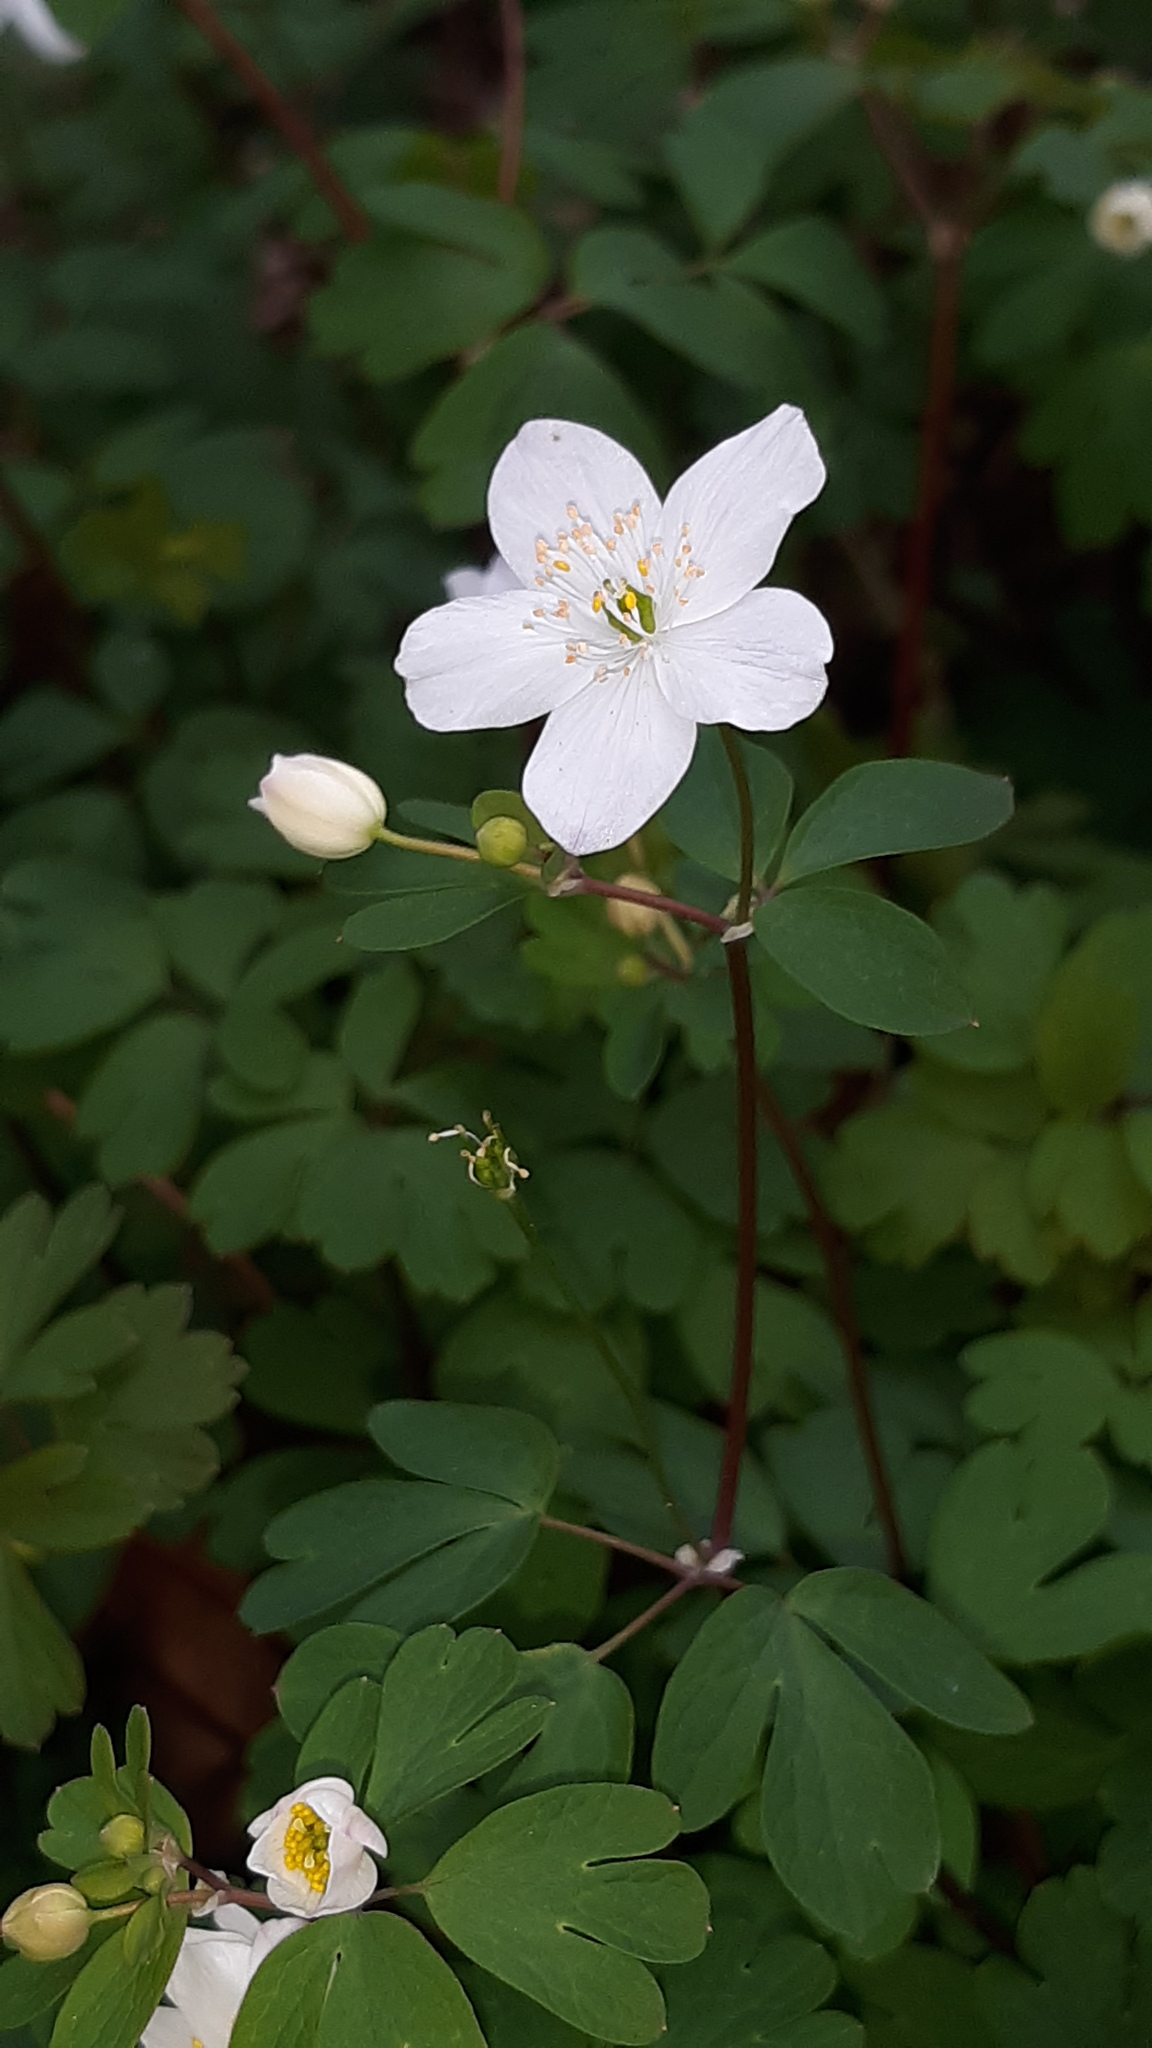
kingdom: Plantae
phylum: Tracheophyta
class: Magnoliopsida
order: Ranunculales
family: Ranunculaceae
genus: Enemion
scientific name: Enemion biternatum
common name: Eastern false rue-anemone
